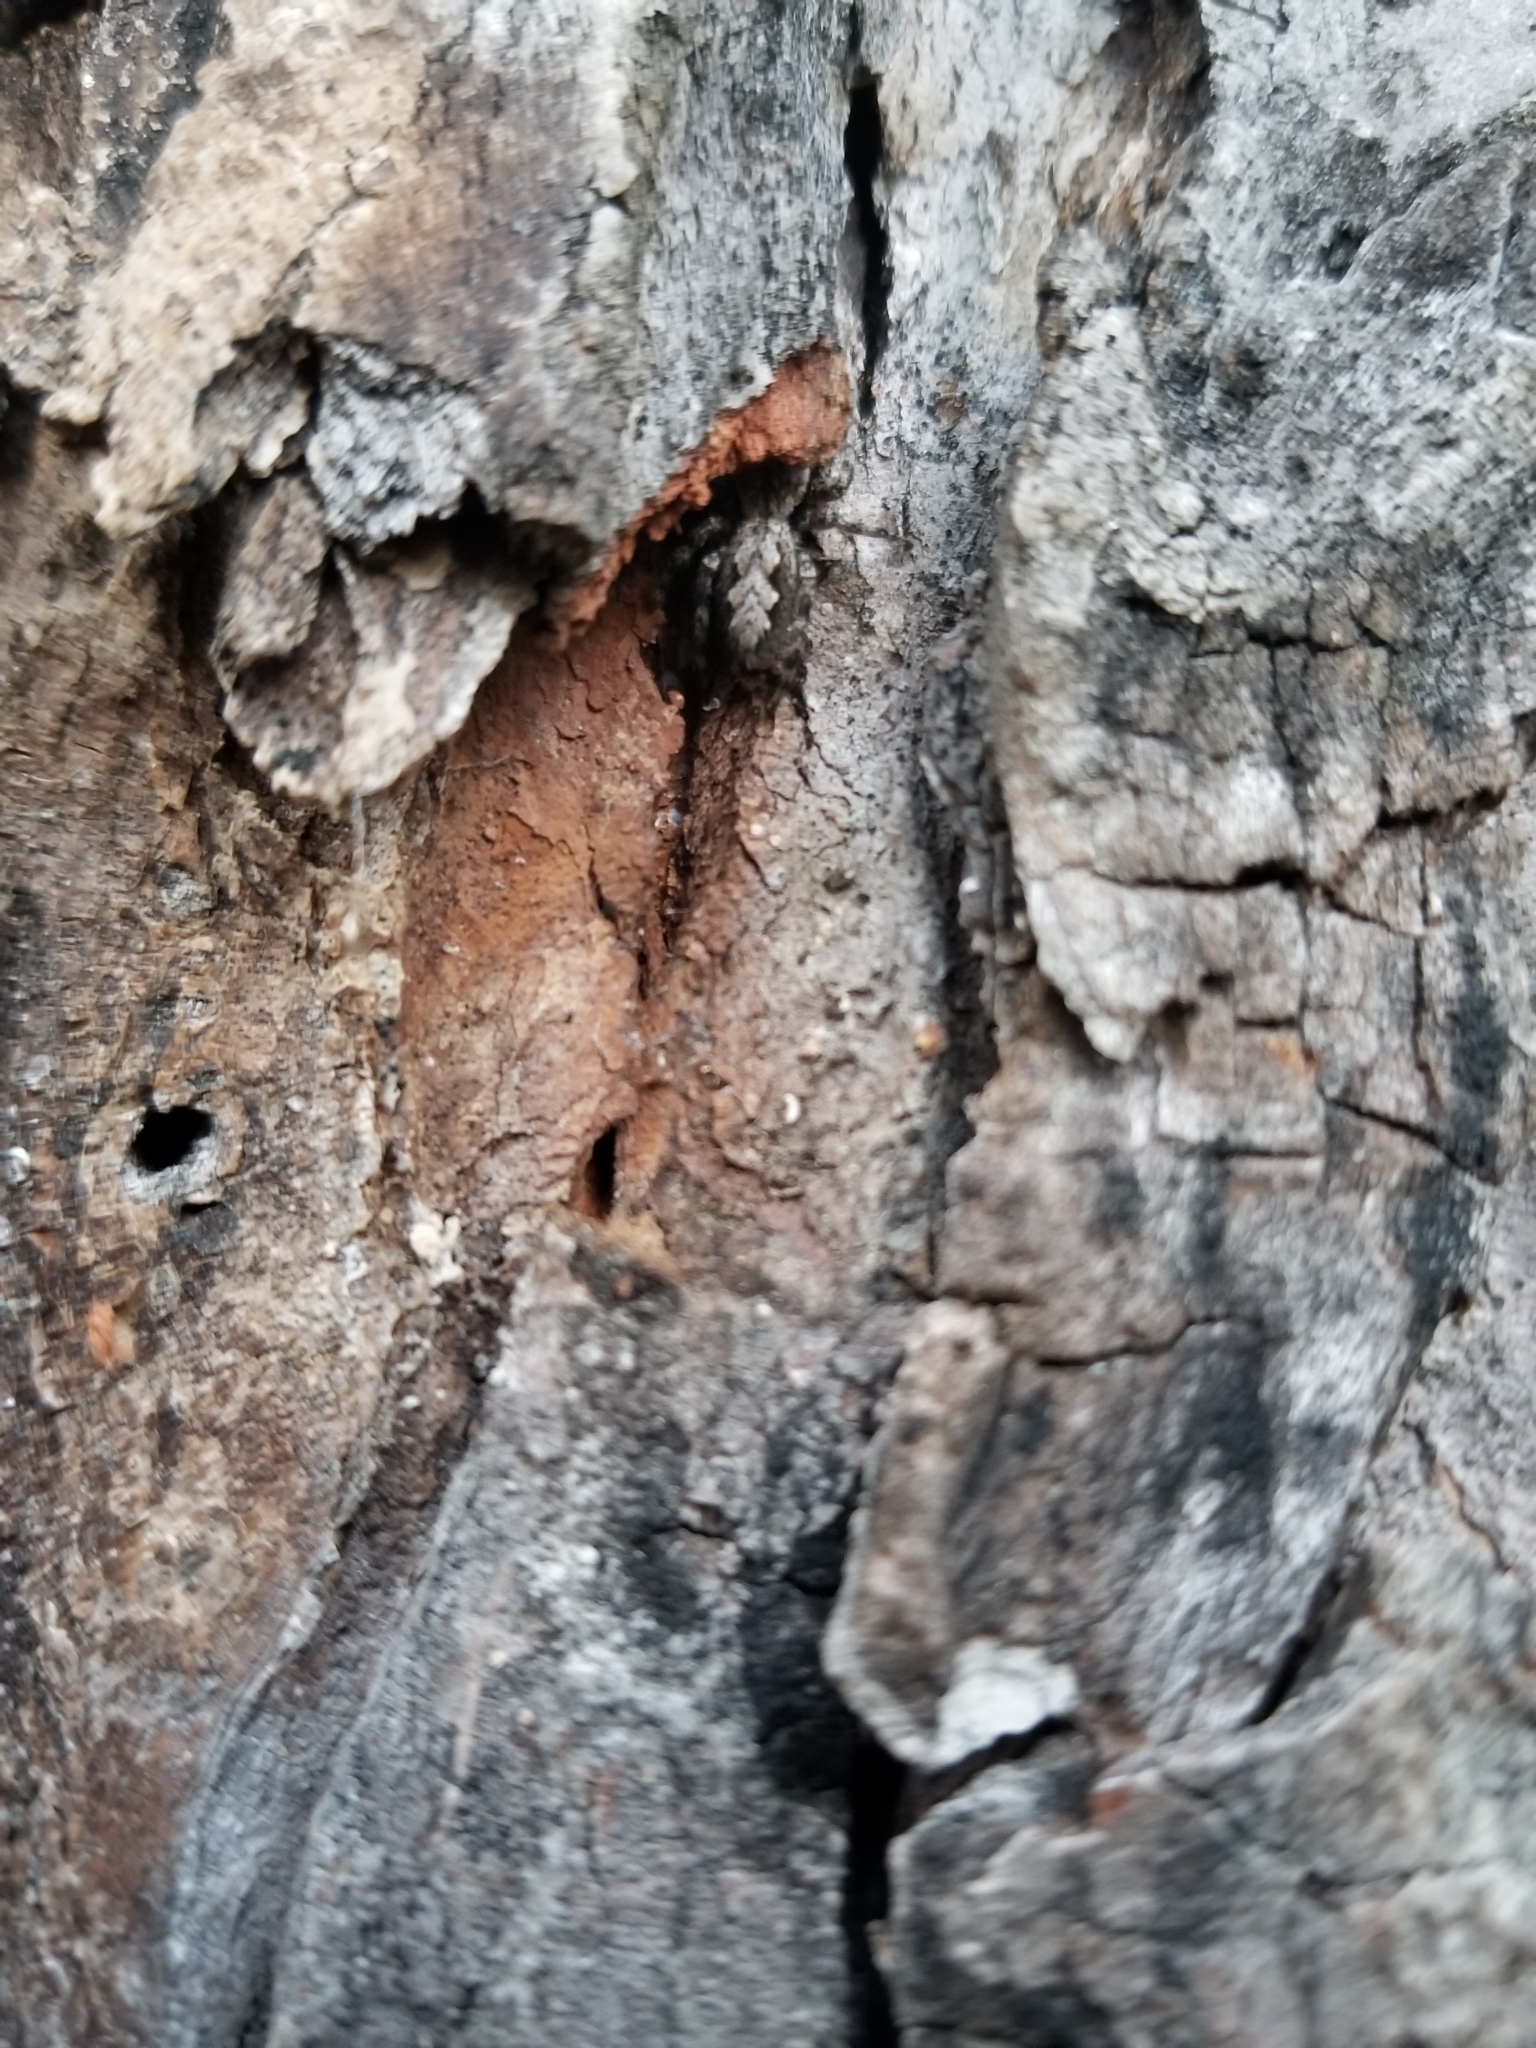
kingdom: Animalia
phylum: Arthropoda
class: Arachnida
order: Araneae
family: Salticidae
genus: Platycryptus
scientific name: Platycryptus undatus
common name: Tan jumping spider
